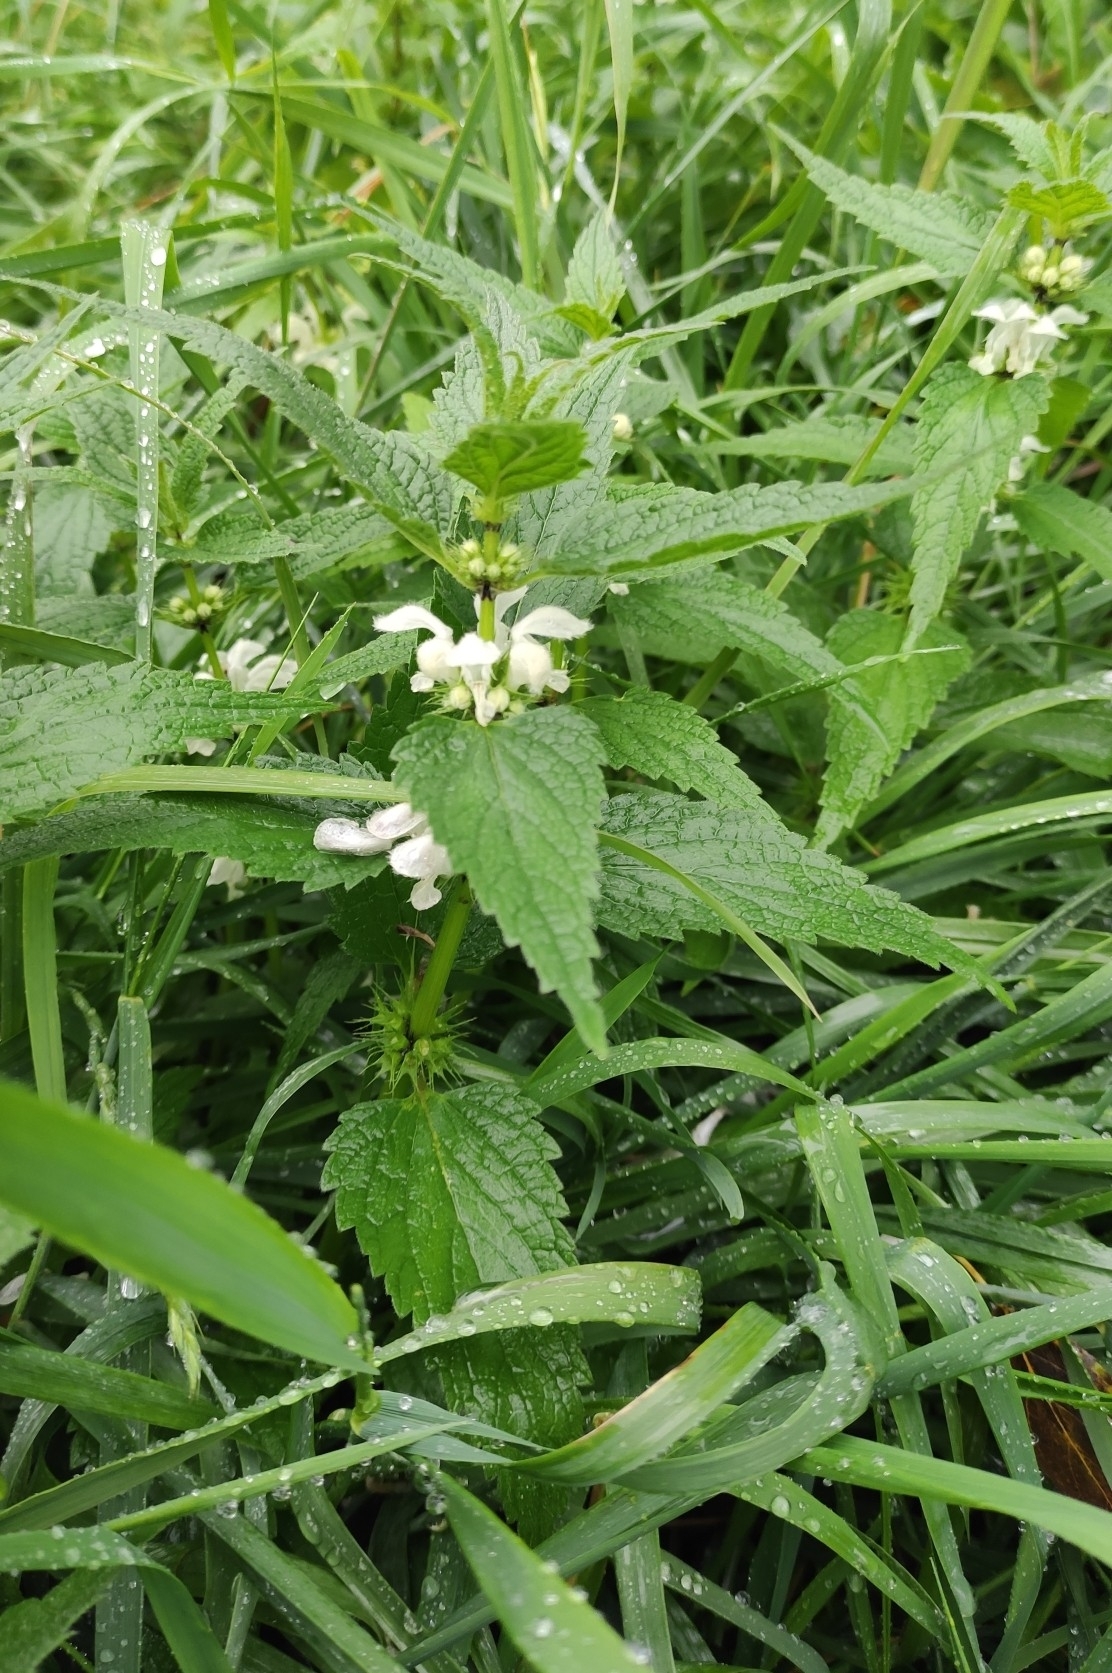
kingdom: Plantae
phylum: Tracheophyta
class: Magnoliopsida
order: Lamiales
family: Lamiaceae
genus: Lamium
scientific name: Lamium album
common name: White dead-nettle
